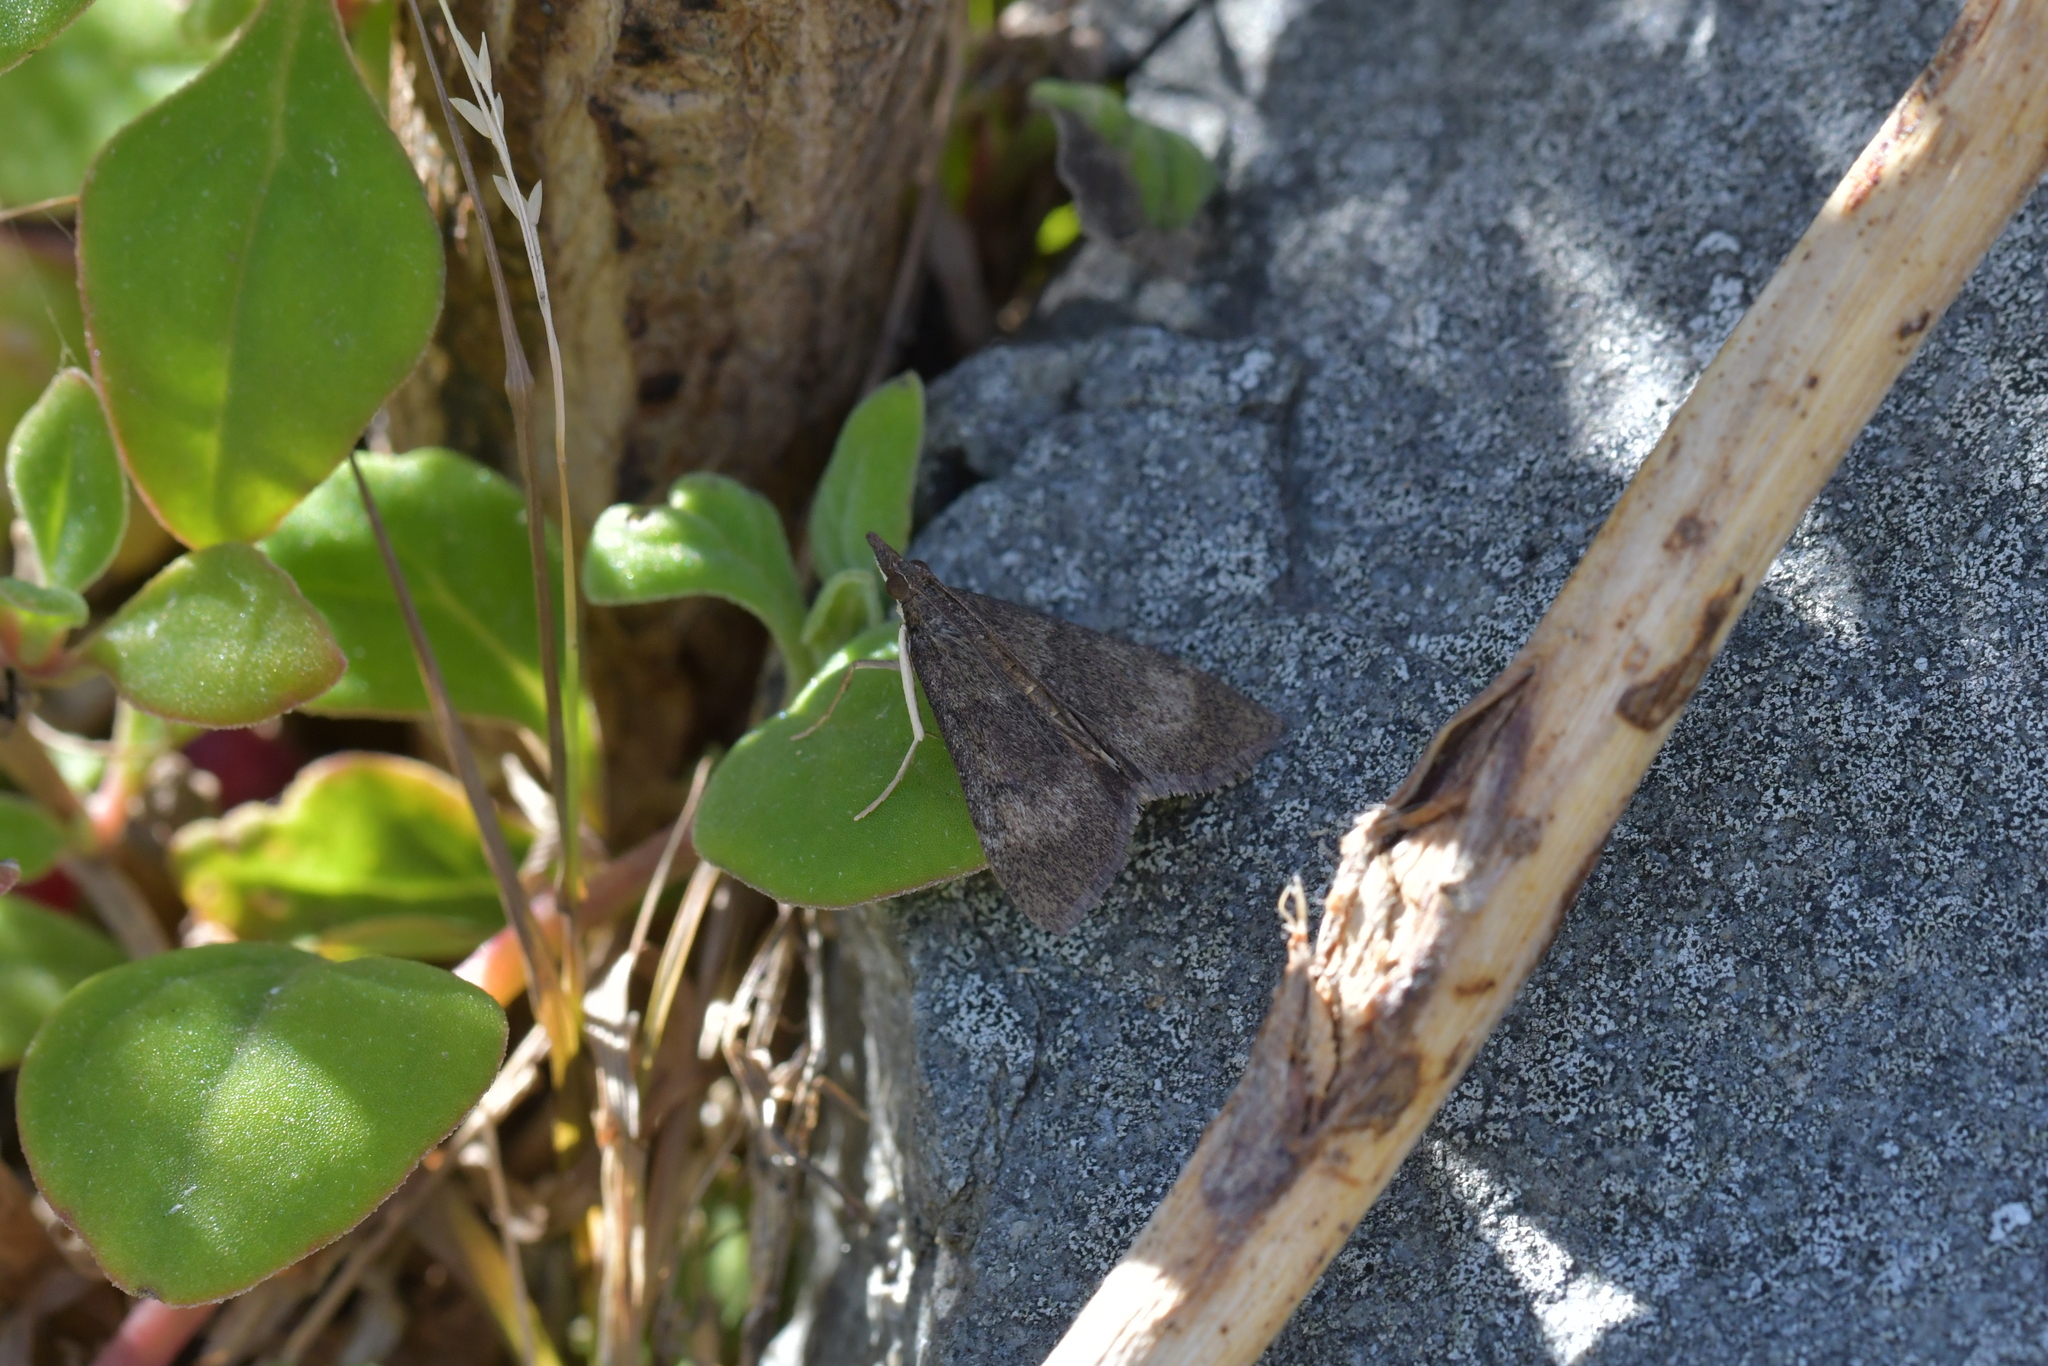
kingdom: Animalia
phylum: Arthropoda
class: Insecta
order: Lepidoptera
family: Crambidae
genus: Uresiphita
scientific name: Uresiphita
